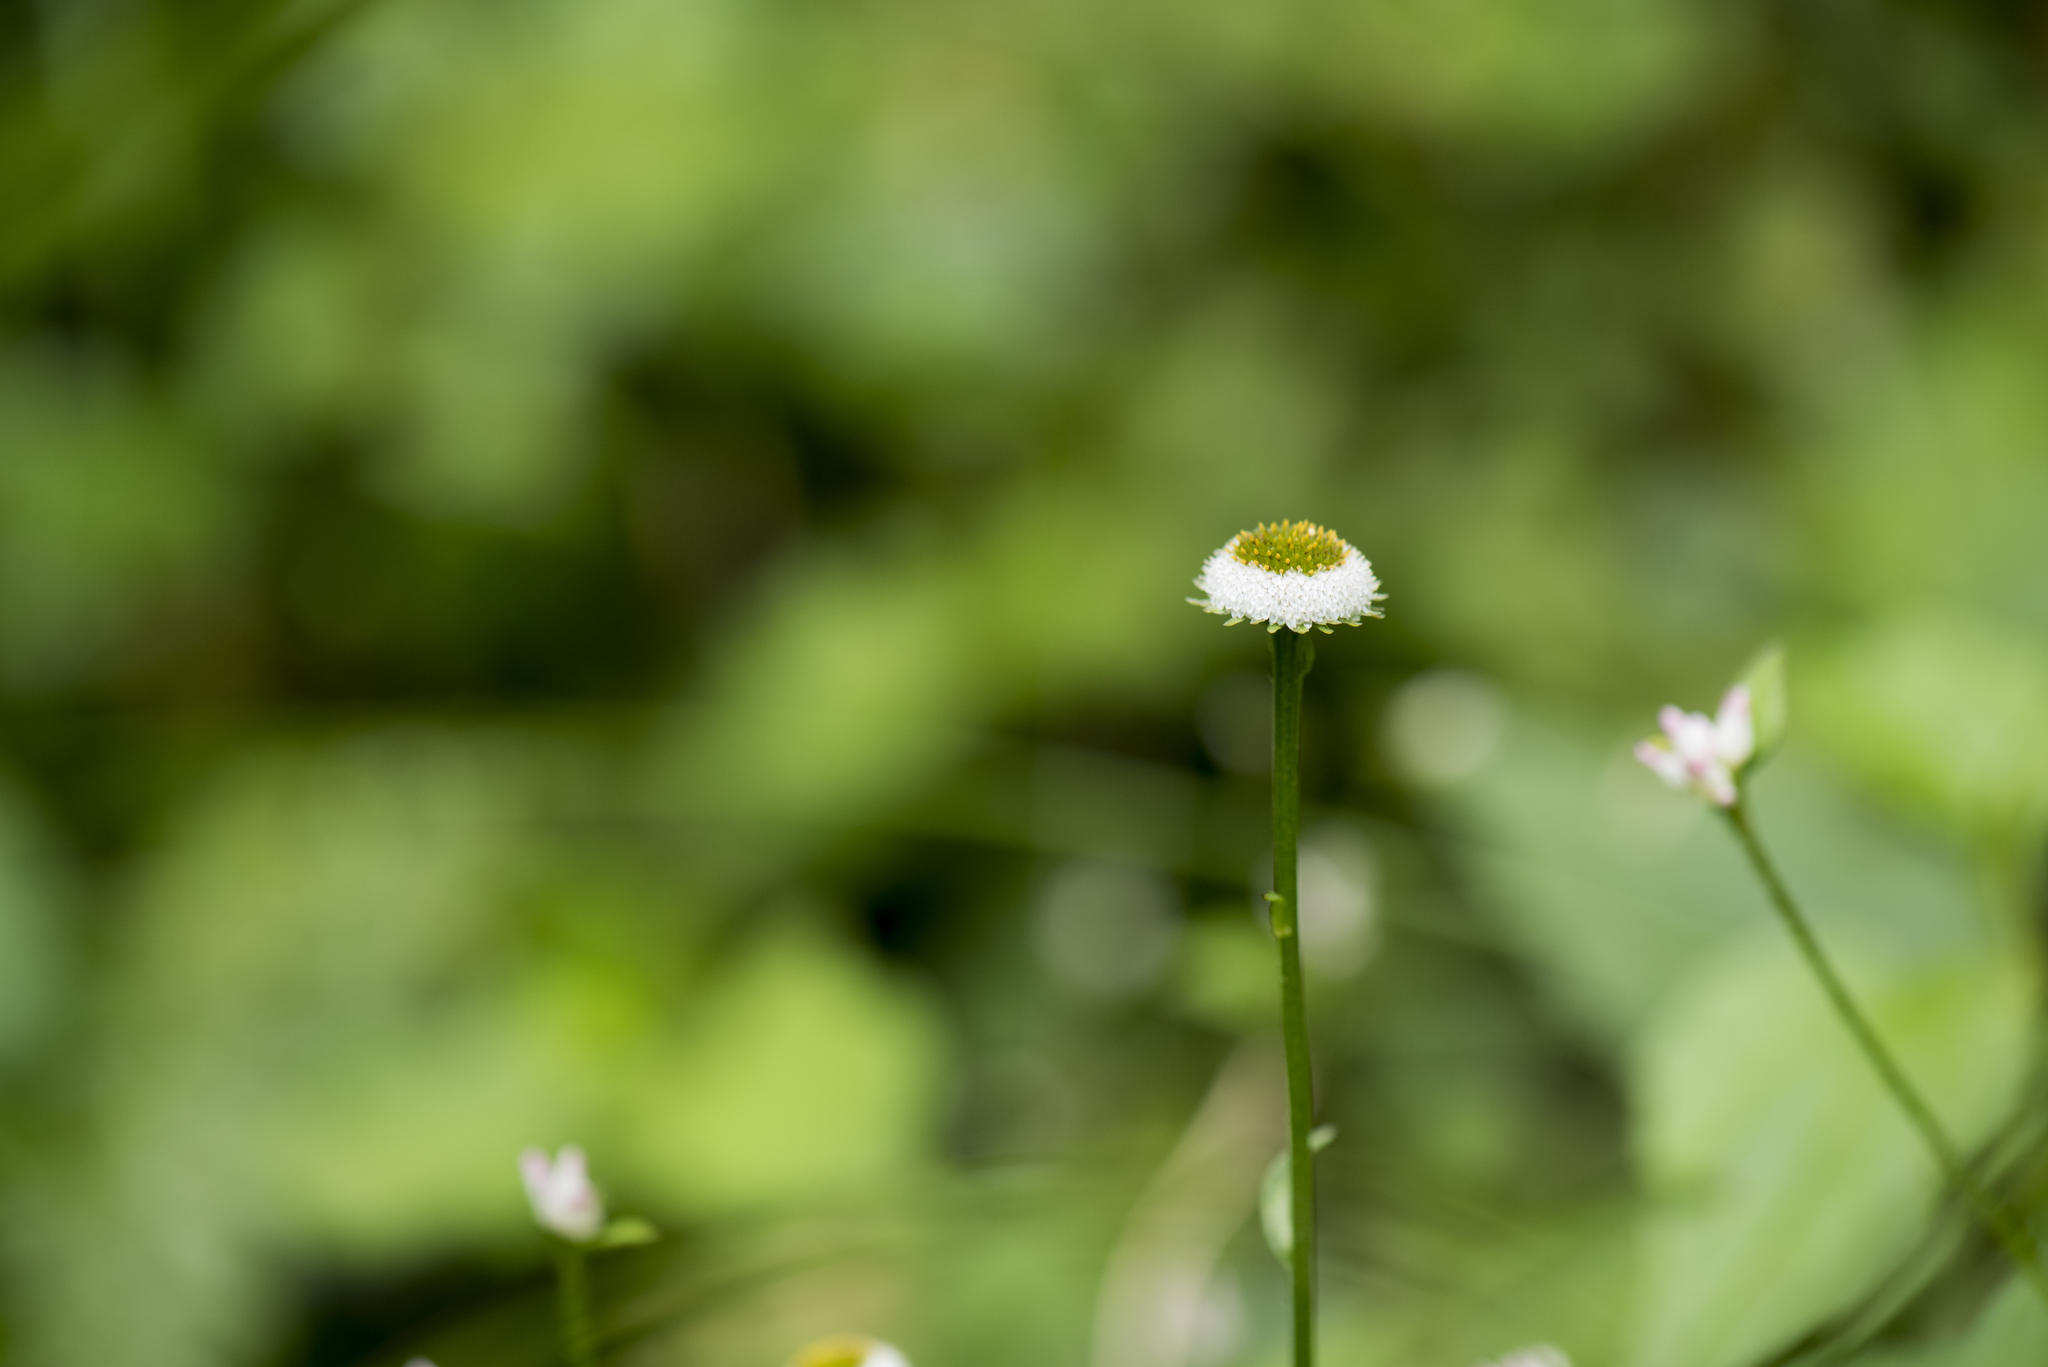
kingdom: Plantae
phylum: Tracheophyta
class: Magnoliopsida
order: Asterales
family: Asteraceae
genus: Myriactis
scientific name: Myriactis humilis
